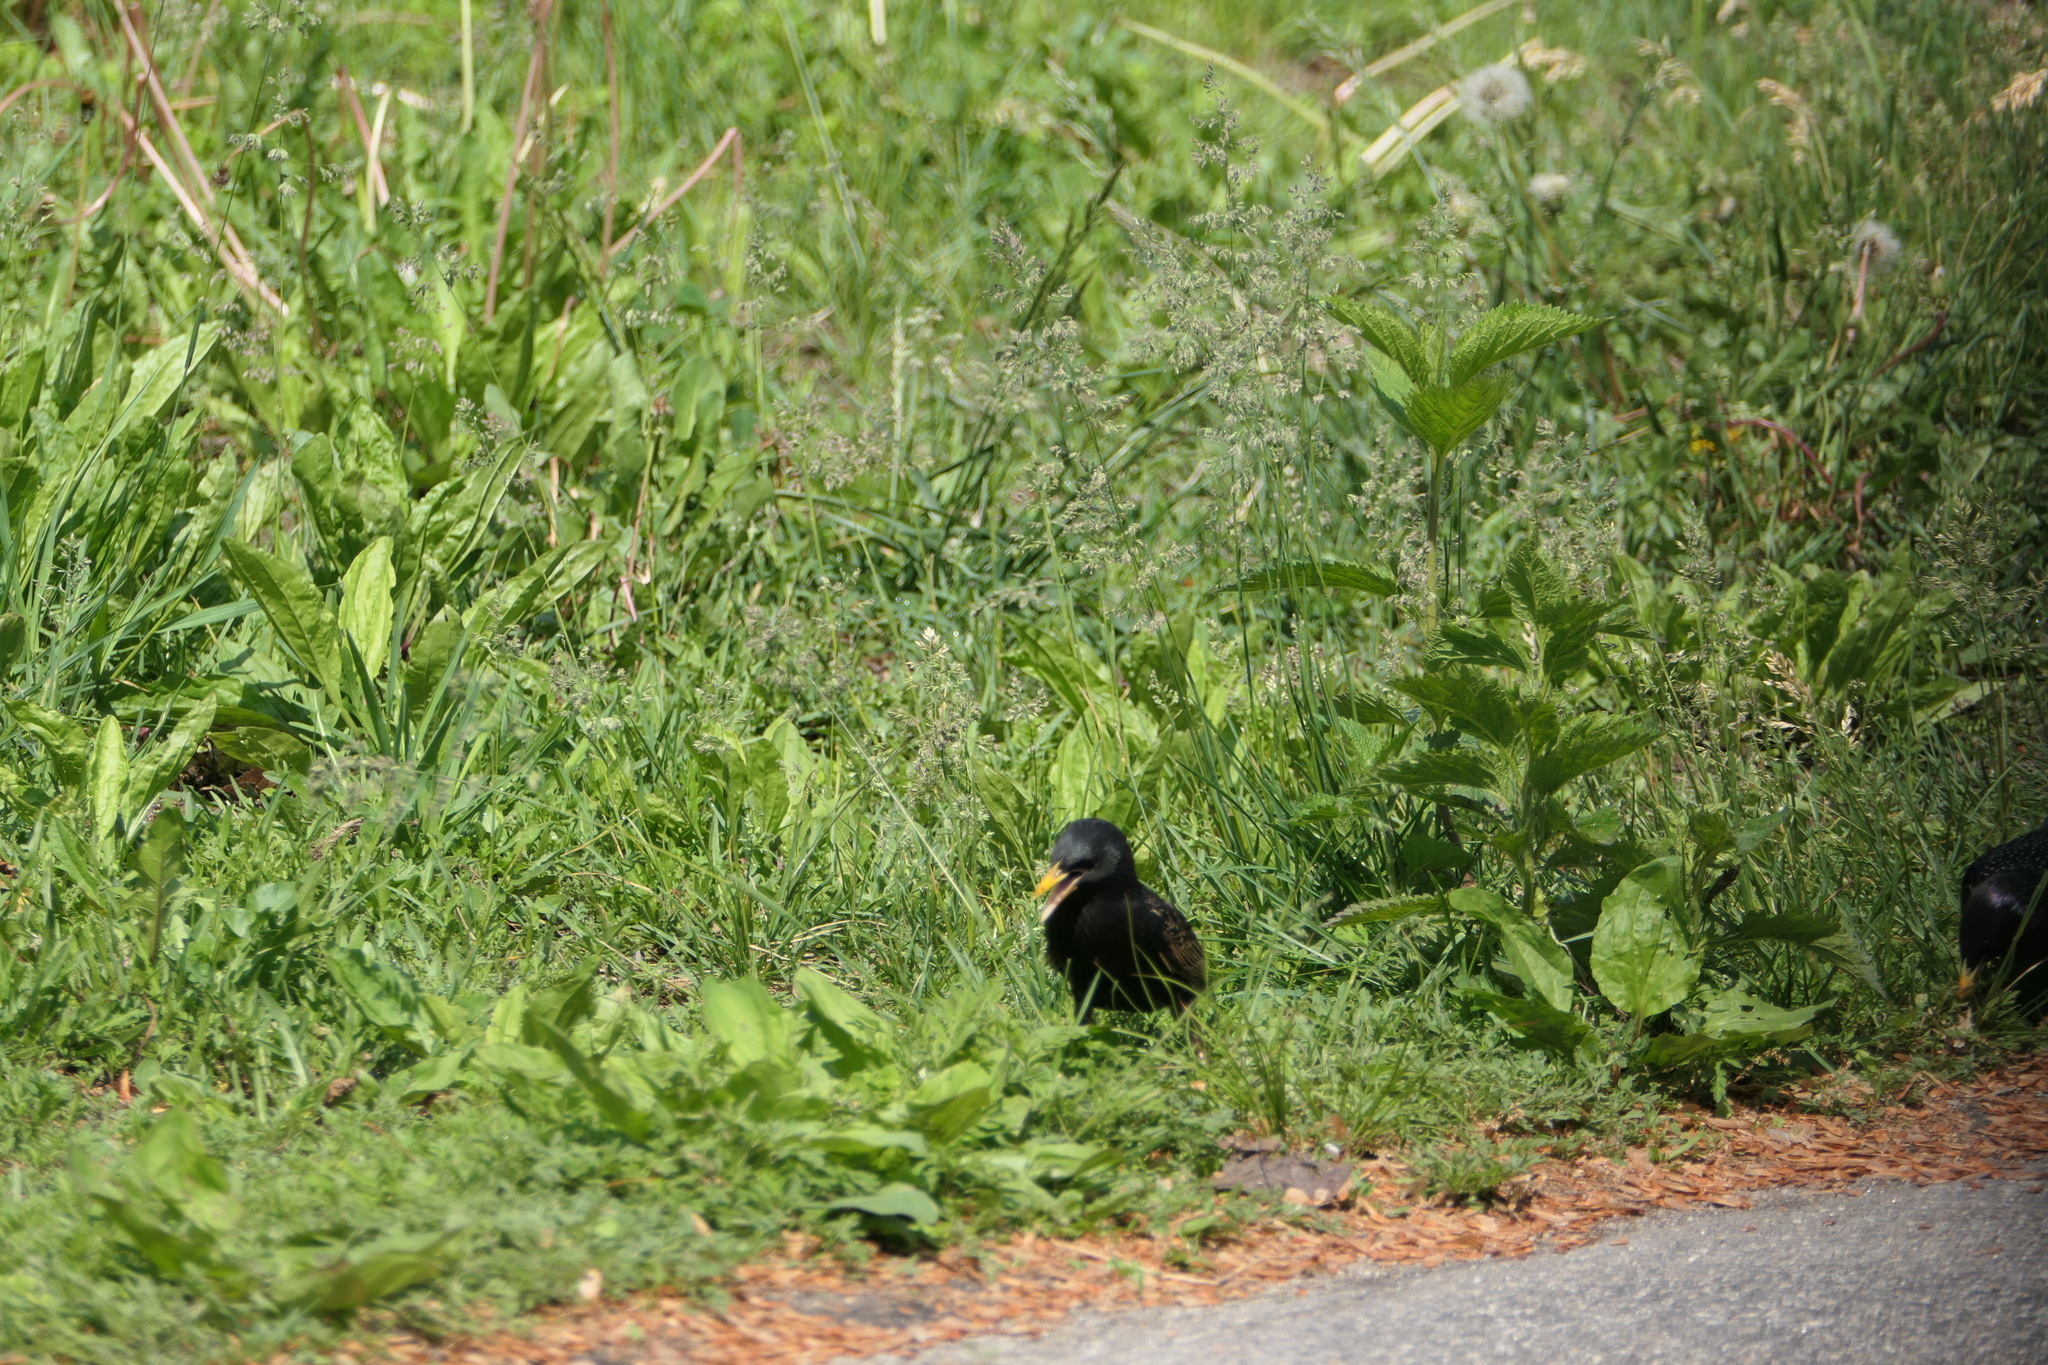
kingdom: Animalia
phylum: Chordata
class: Aves
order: Passeriformes
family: Sturnidae
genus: Sturnus
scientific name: Sturnus vulgaris
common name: Common starling
